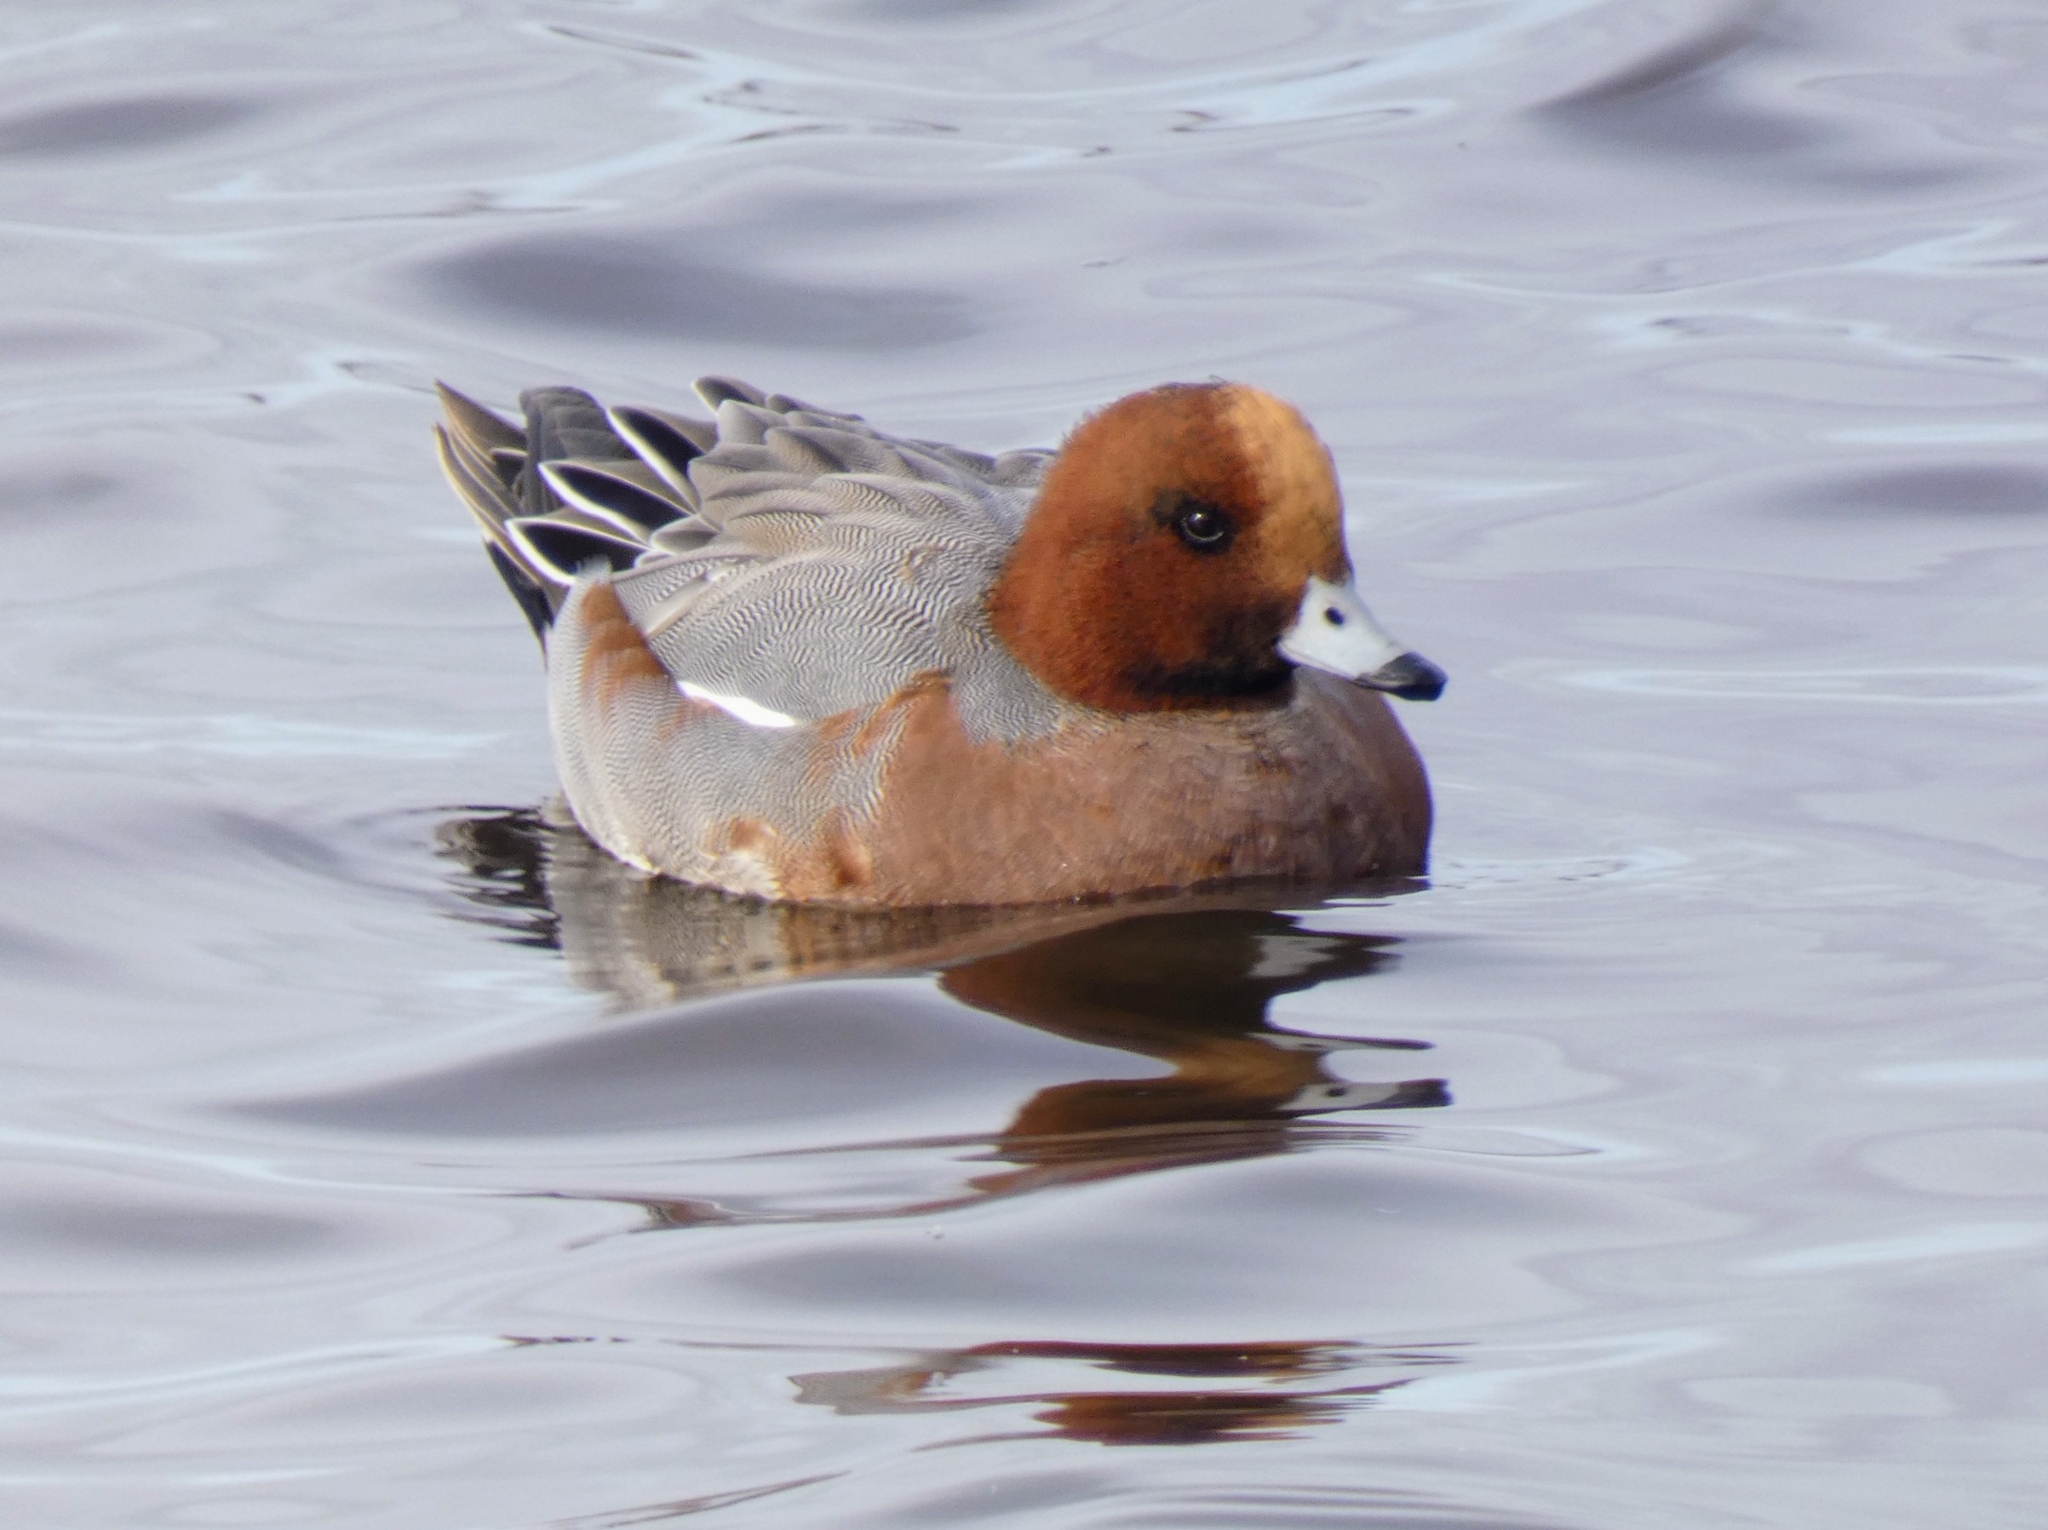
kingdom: Animalia
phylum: Chordata
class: Aves
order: Anseriformes
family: Anatidae
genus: Mareca
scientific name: Mareca penelope
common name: Eurasian wigeon
